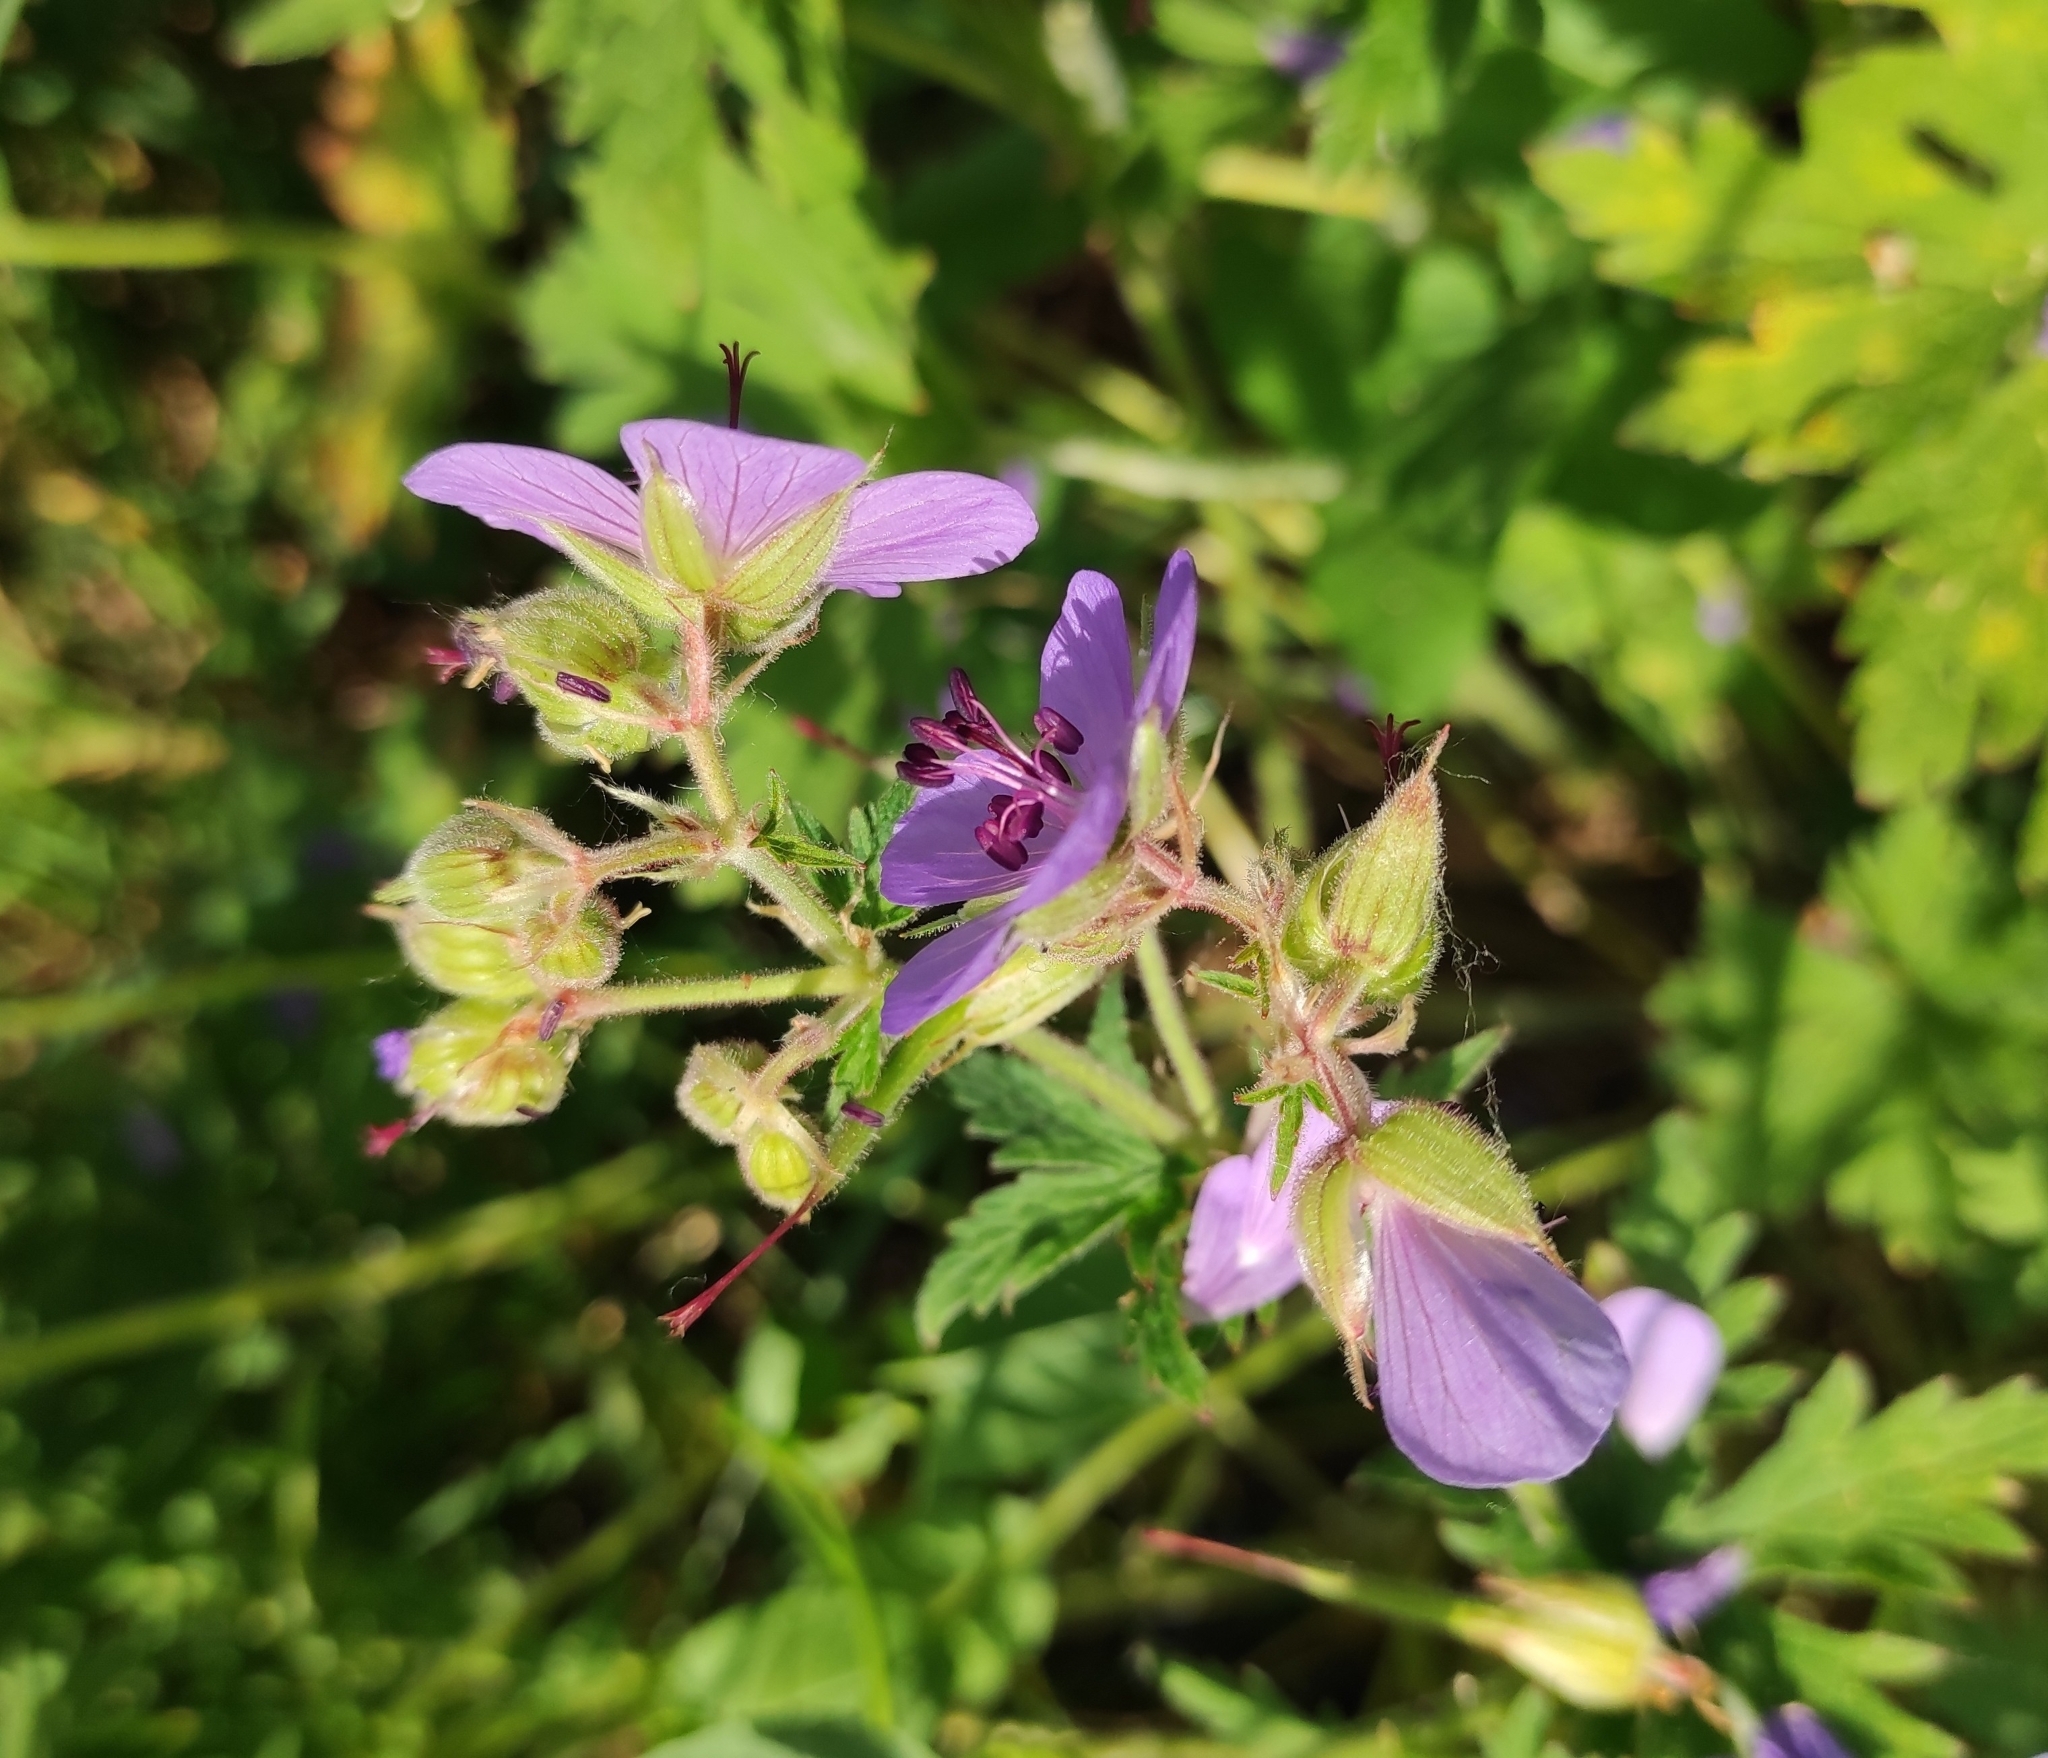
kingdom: Plantae
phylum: Tracheophyta
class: Magnoliopsida
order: Geraniales
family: Geraniaceae
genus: Geranium
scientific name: Geranium pratense
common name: Meadow crane's-bill
